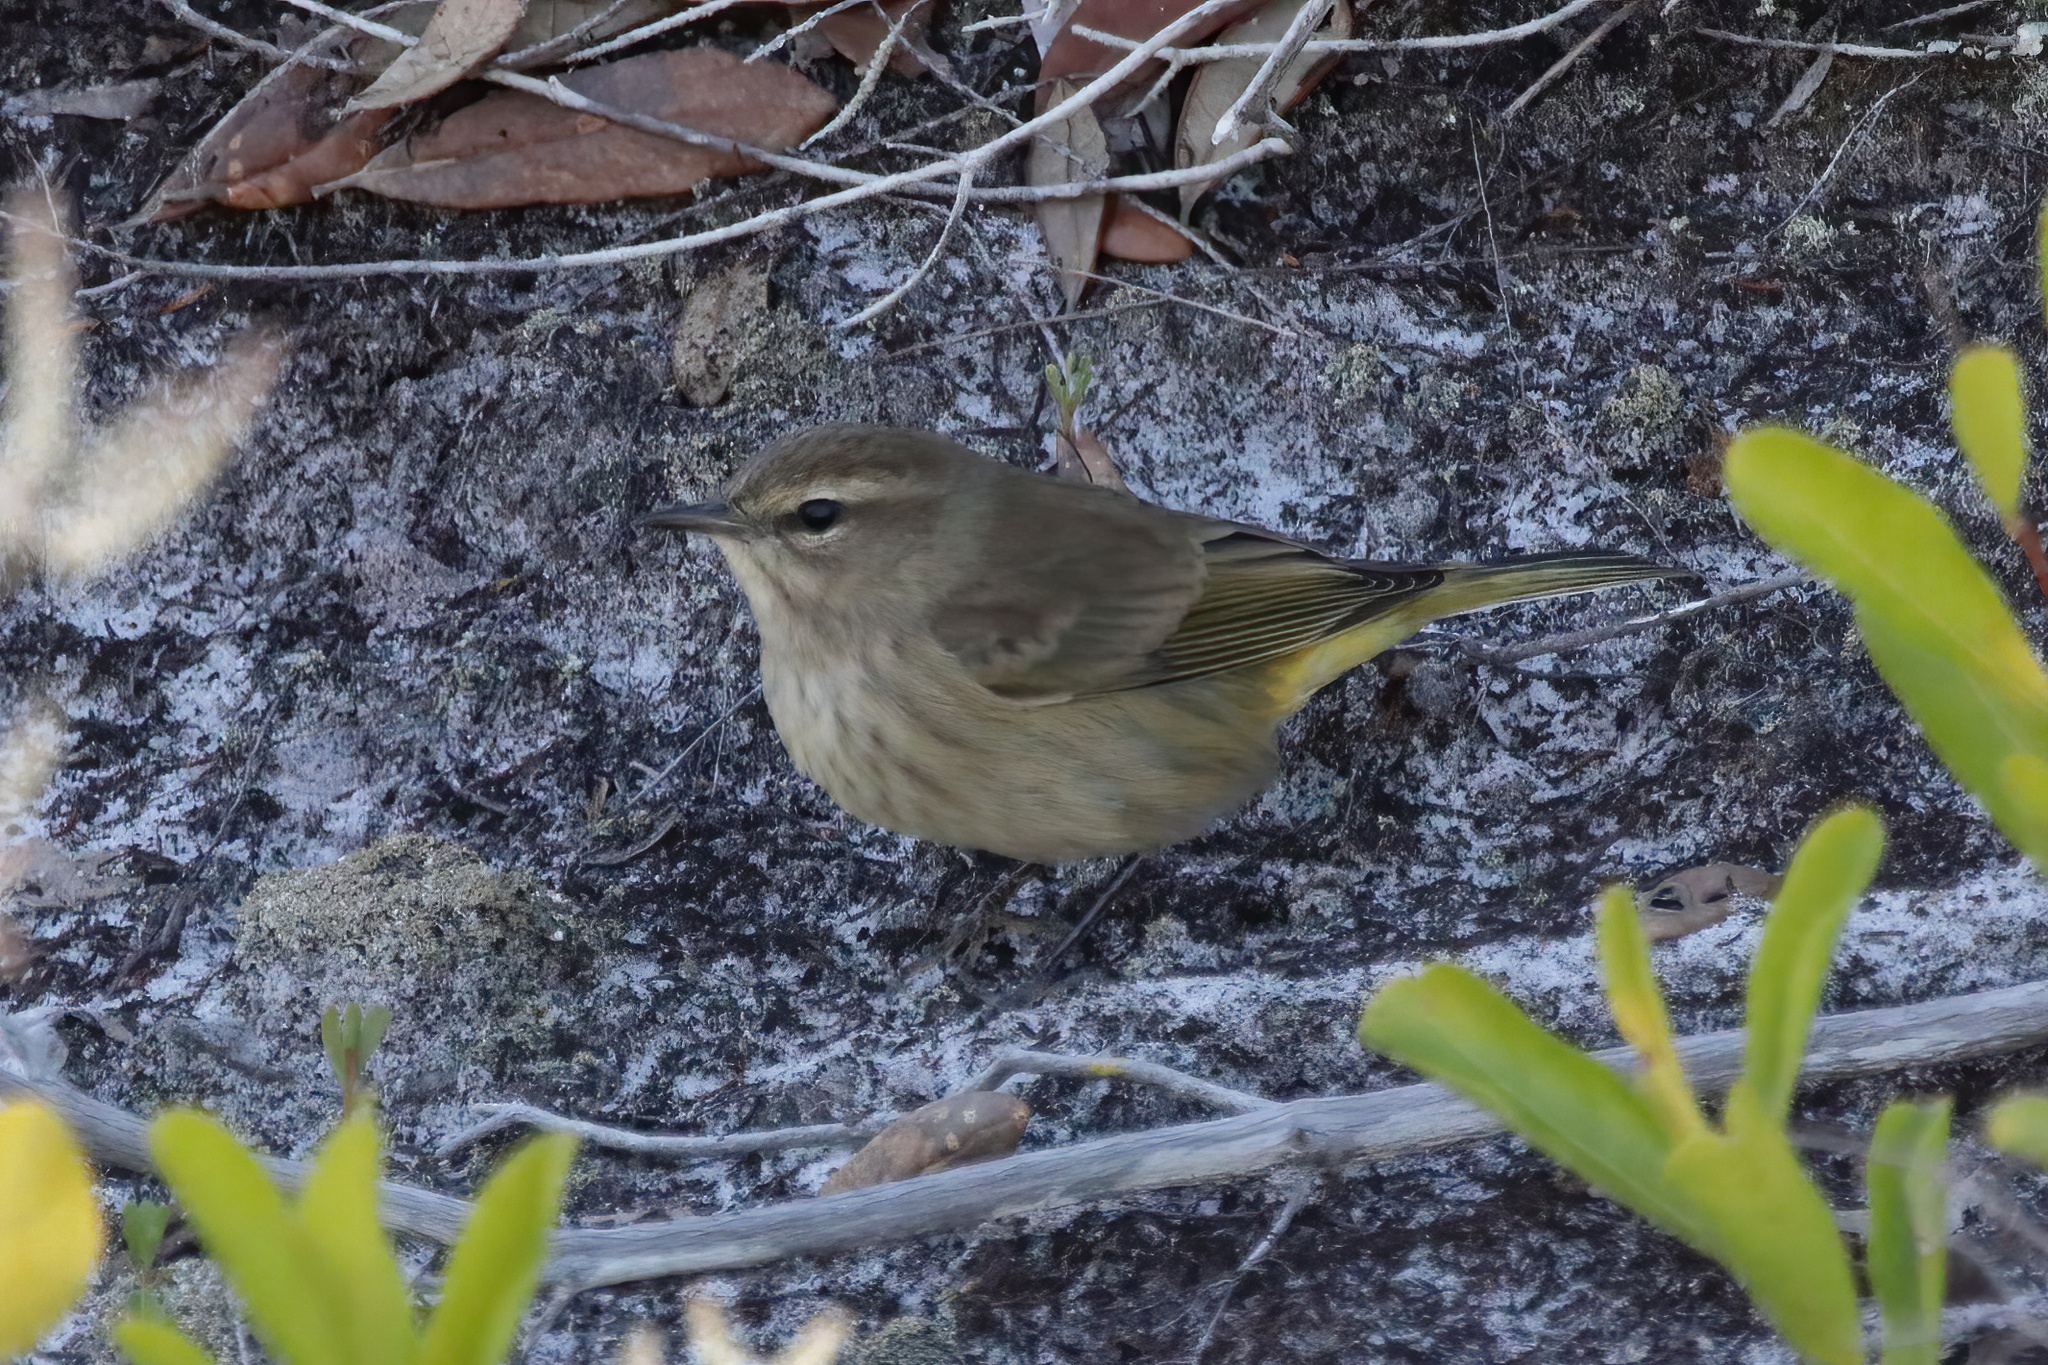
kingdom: Animalia
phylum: Chordata
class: Aves
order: Passeriformes
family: Parulidae
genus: Setophaga
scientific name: Setophaga palmarum
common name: Palm warbler
